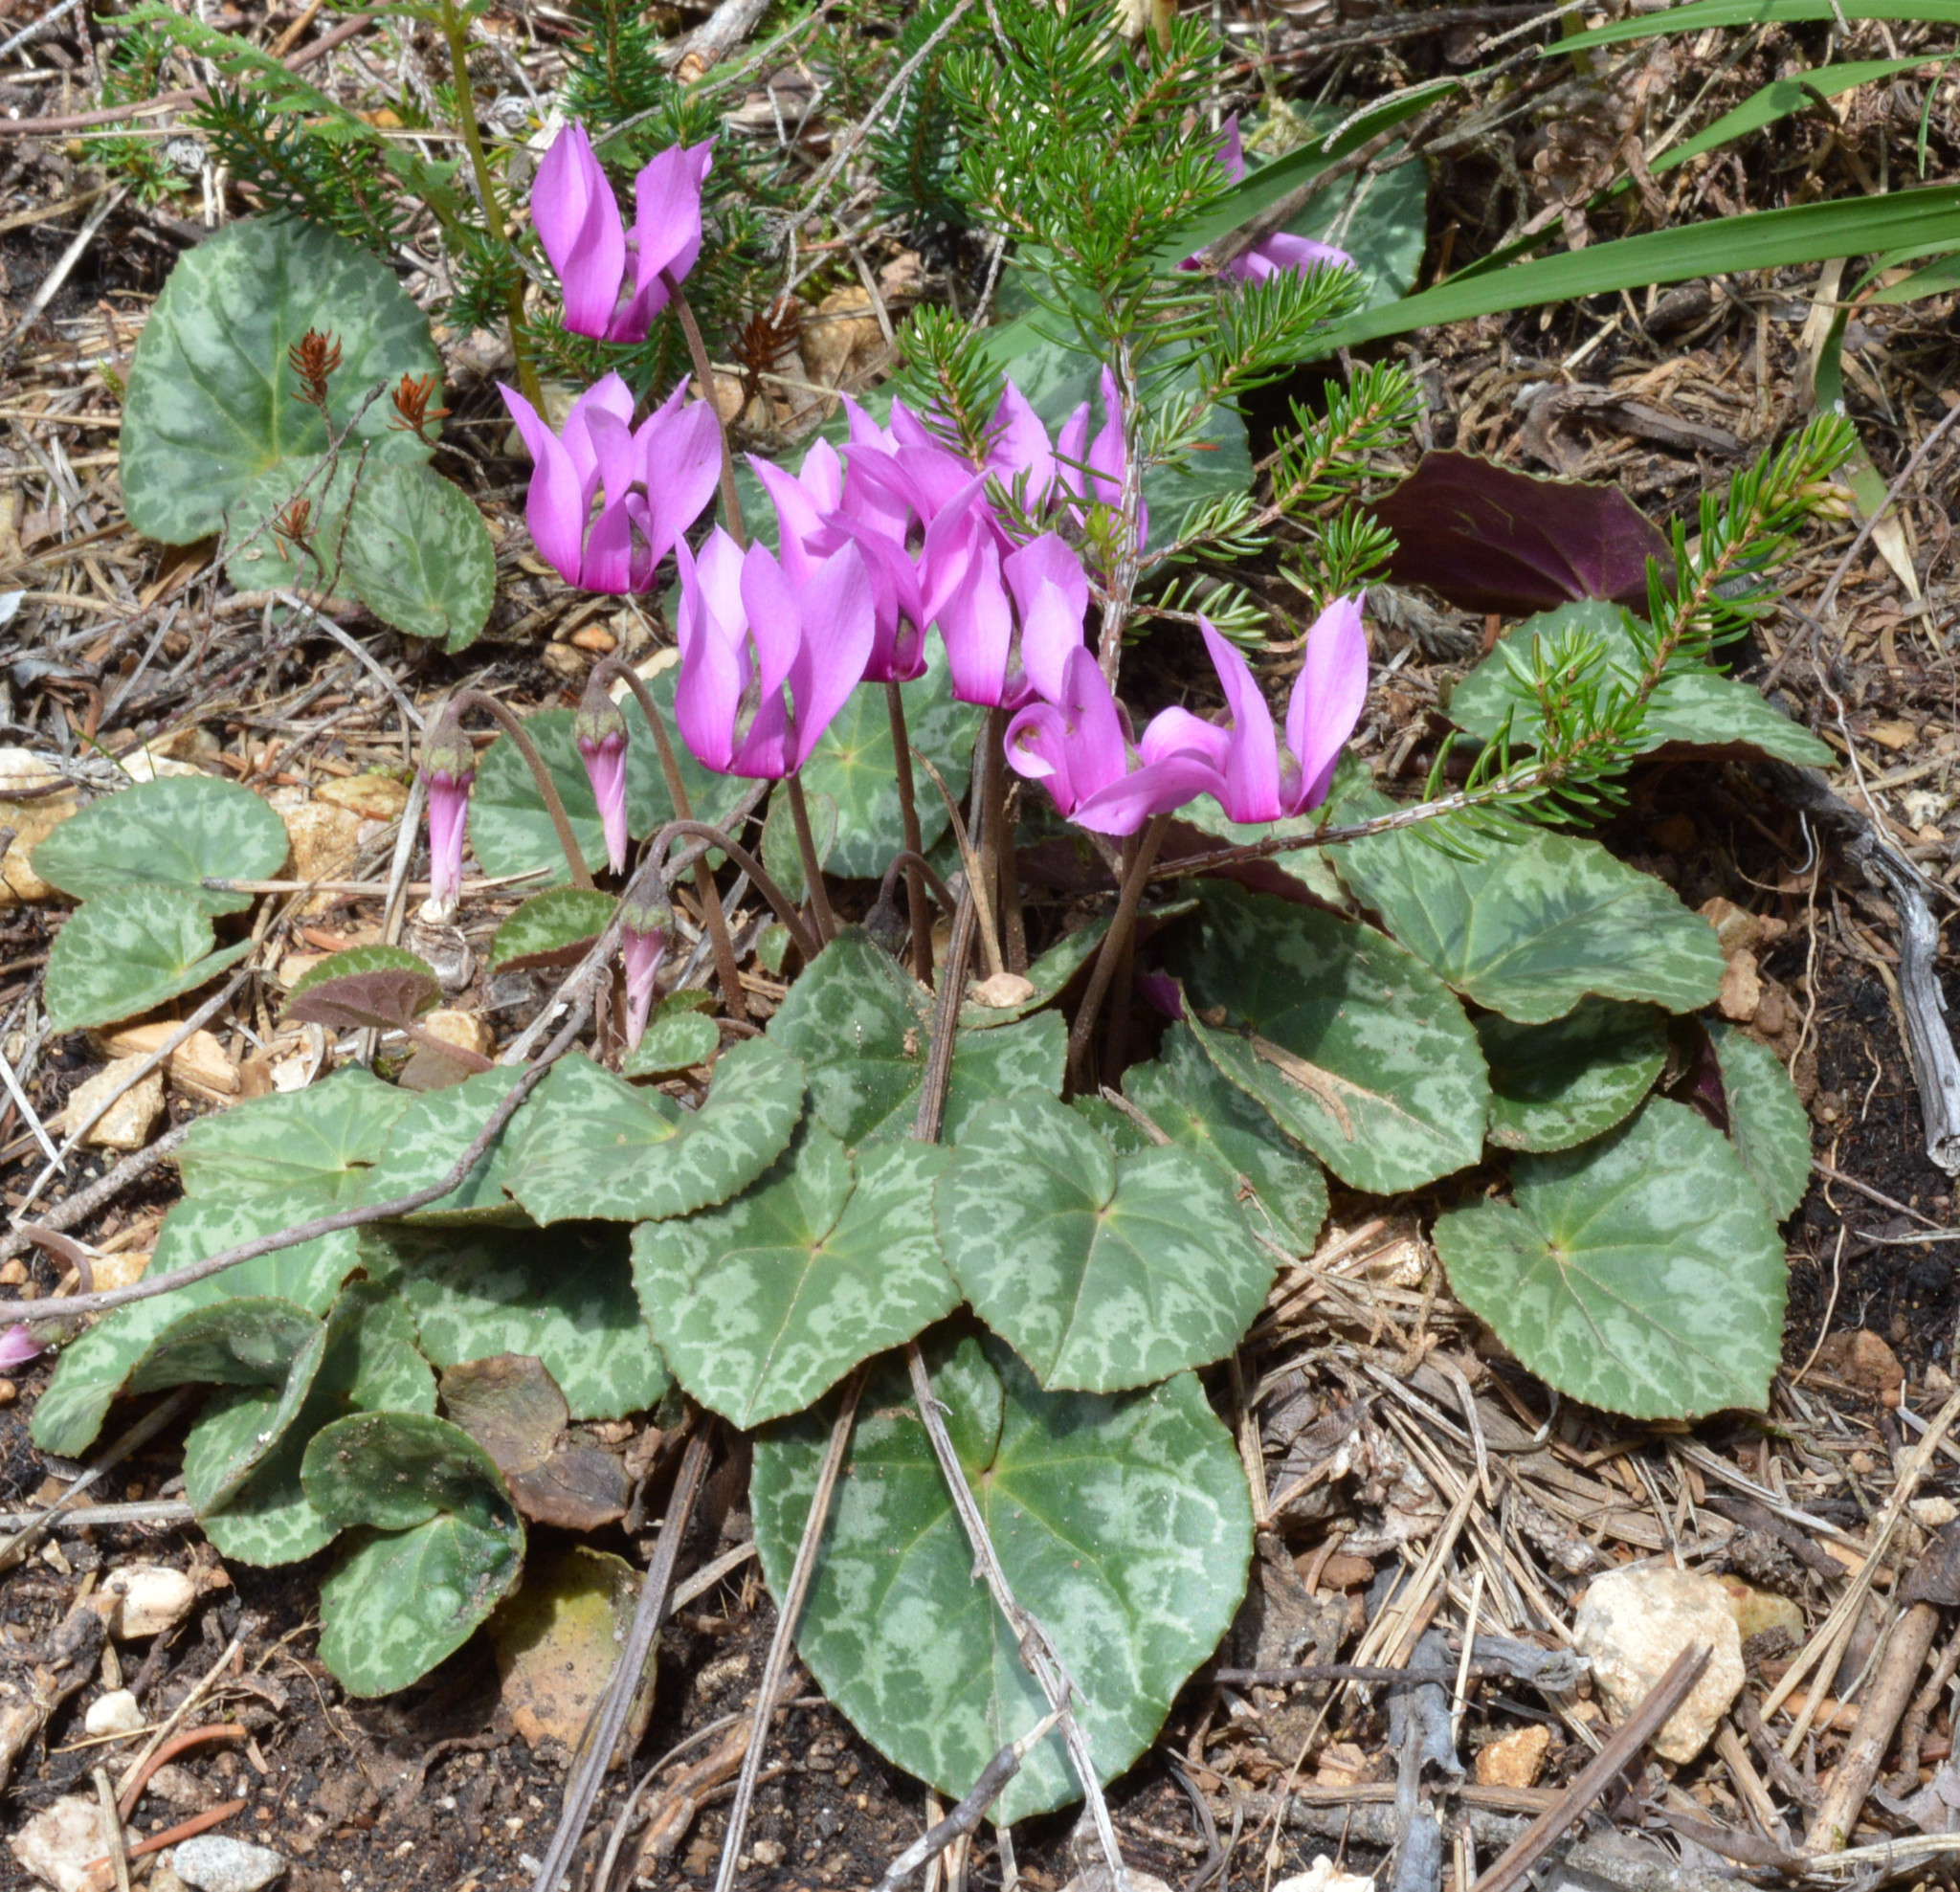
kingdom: Plantae
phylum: Tracheophyta
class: Magnoliopsida
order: Ericales
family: Primulaceae
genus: Cyclamen
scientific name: Cyclamen purpurascens
